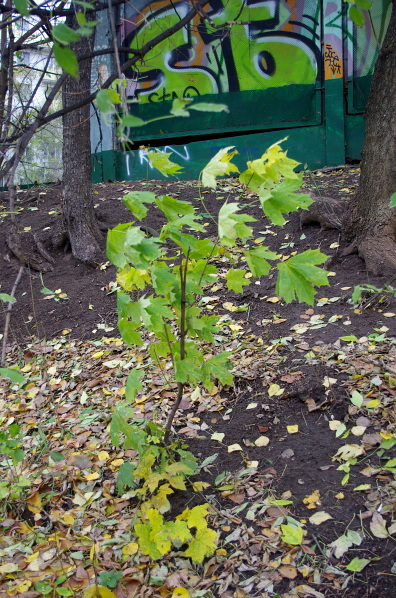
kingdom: Plantae
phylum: Tracheophyta
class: Magnoliopsida
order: Sapindales
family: Sapindaceae
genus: Acer
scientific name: Acer platanoides
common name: Norway maple
